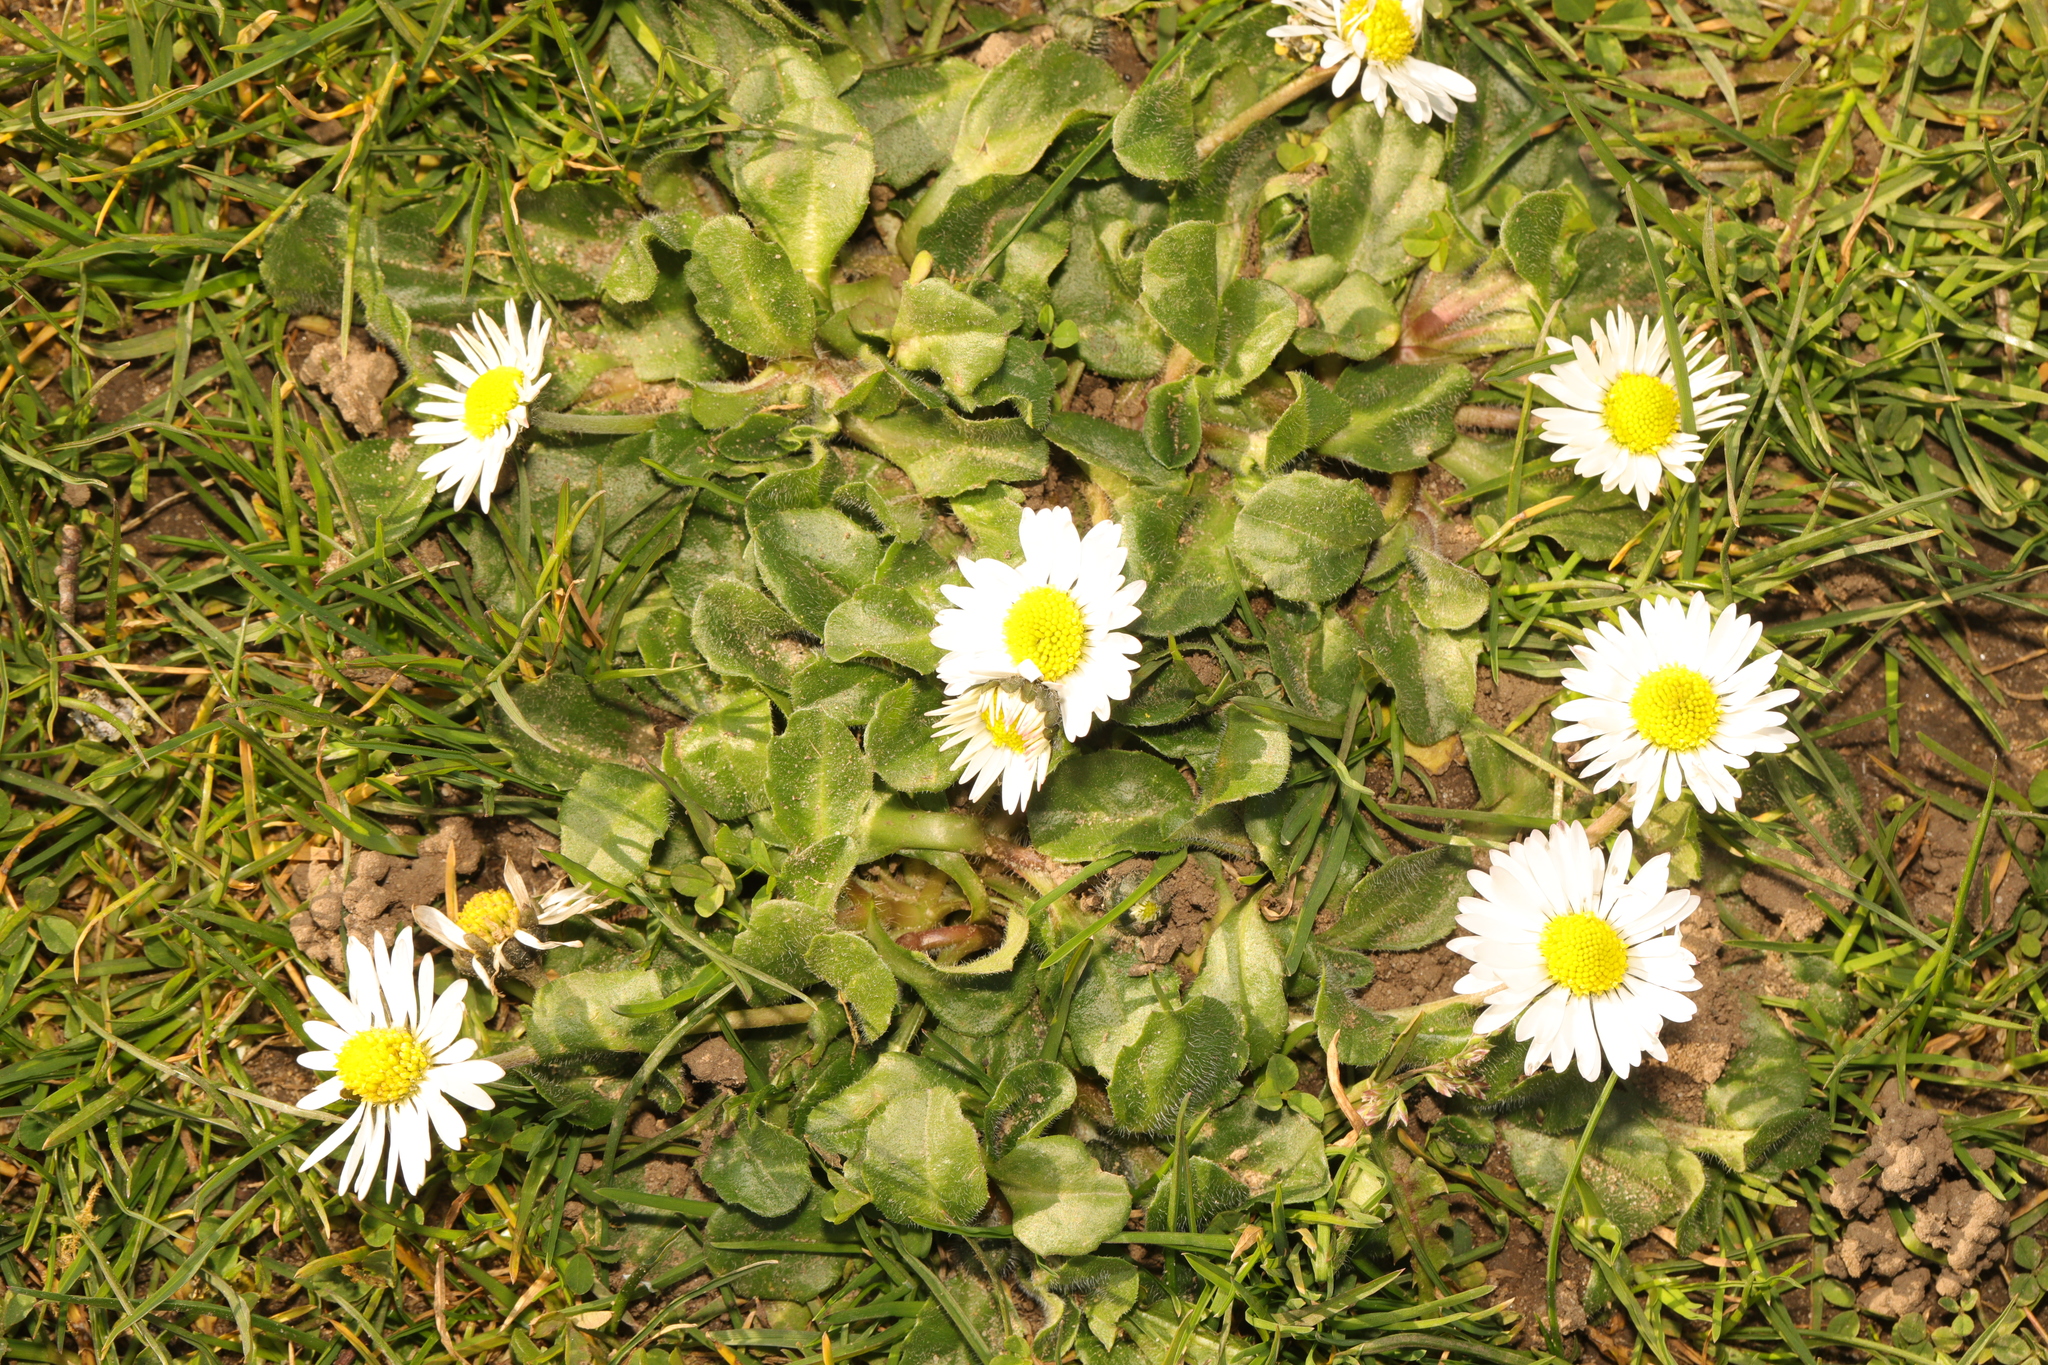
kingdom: Plantae
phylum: Tracheophyta
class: Magnoliopsida
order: Asterales
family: Asteraceae
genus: Bellis
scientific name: Bellis perennis
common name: Lawndaisy
